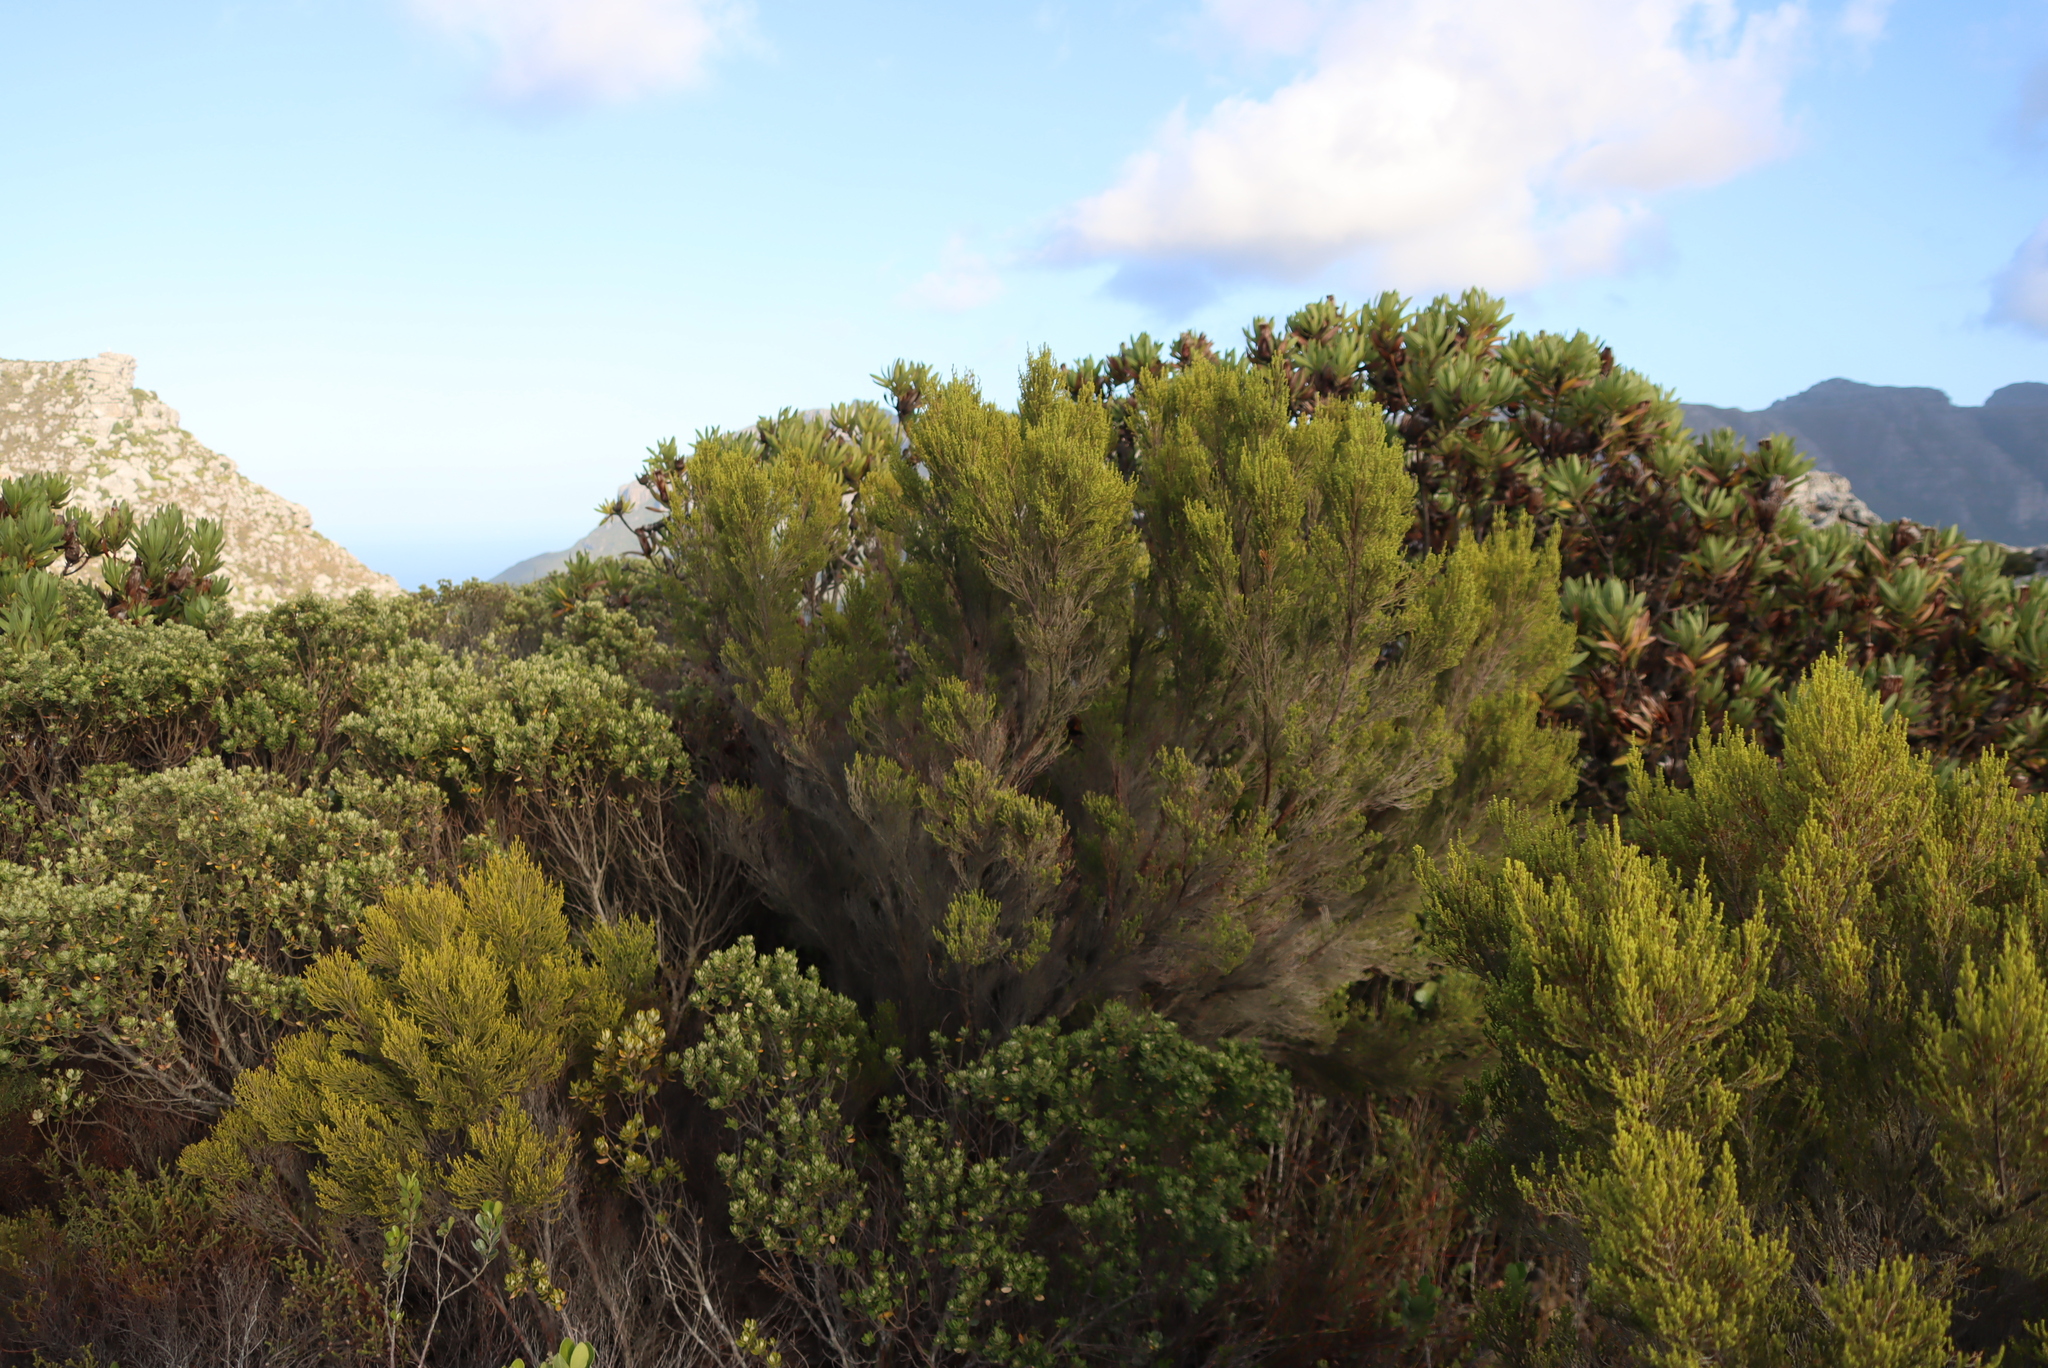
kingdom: Plantae
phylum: Tracheophyta
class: Magnoliopsida
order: Ericales
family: Ericaceae
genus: Erica
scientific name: Erica tristis
